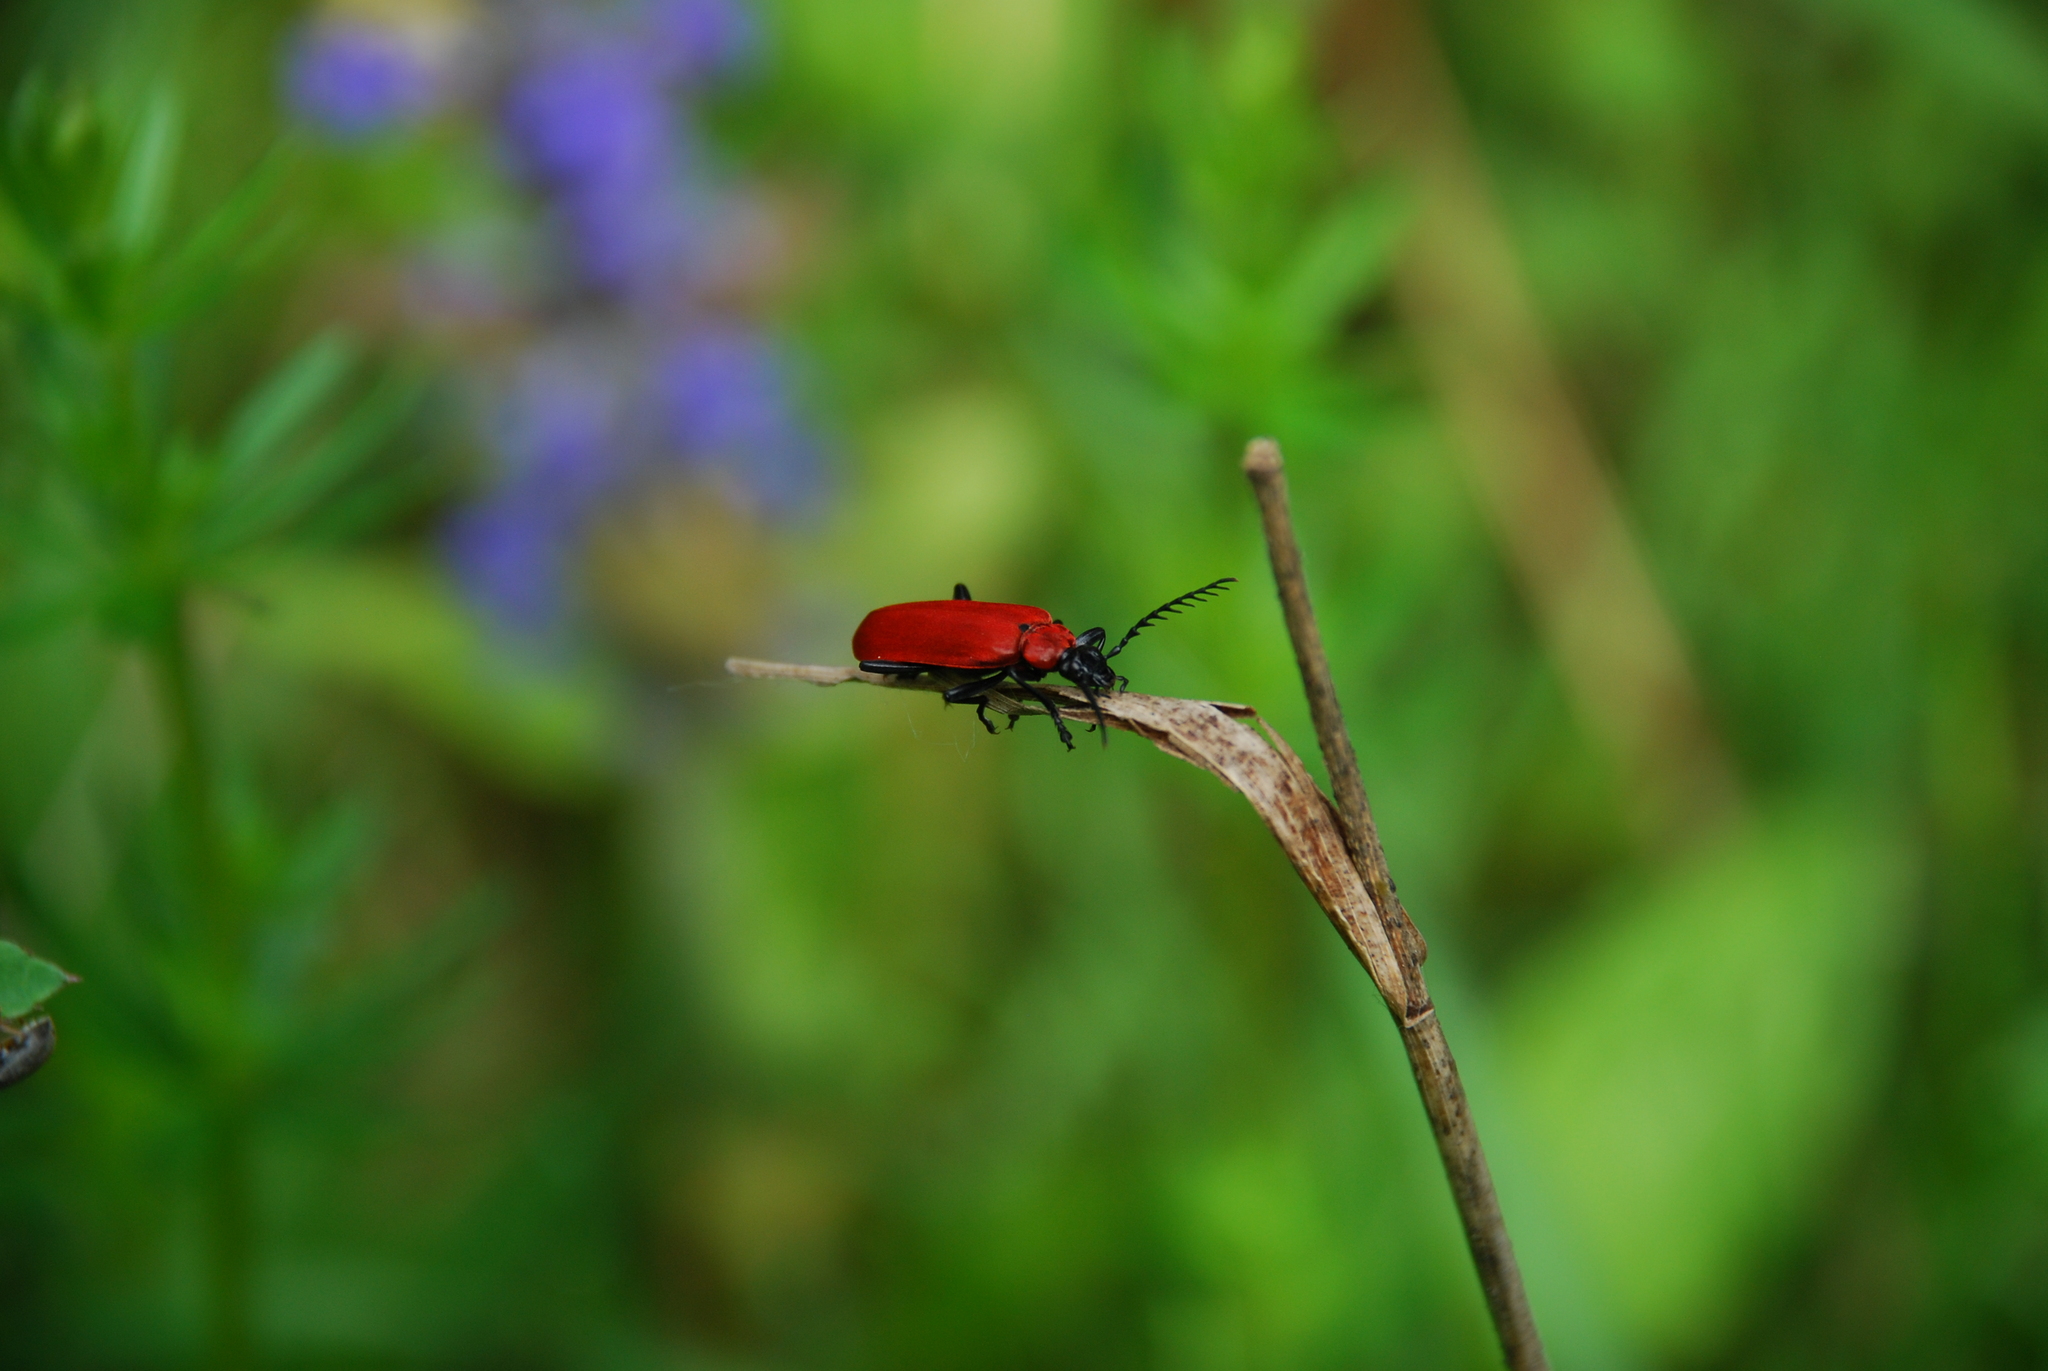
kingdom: Animalia
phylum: Arthropoda
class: Insecta
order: Coleoptera
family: Pyrochroidae
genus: Pyrochroa
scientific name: Pyrochroa coccinea
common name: Black-headed cardinal beetle
